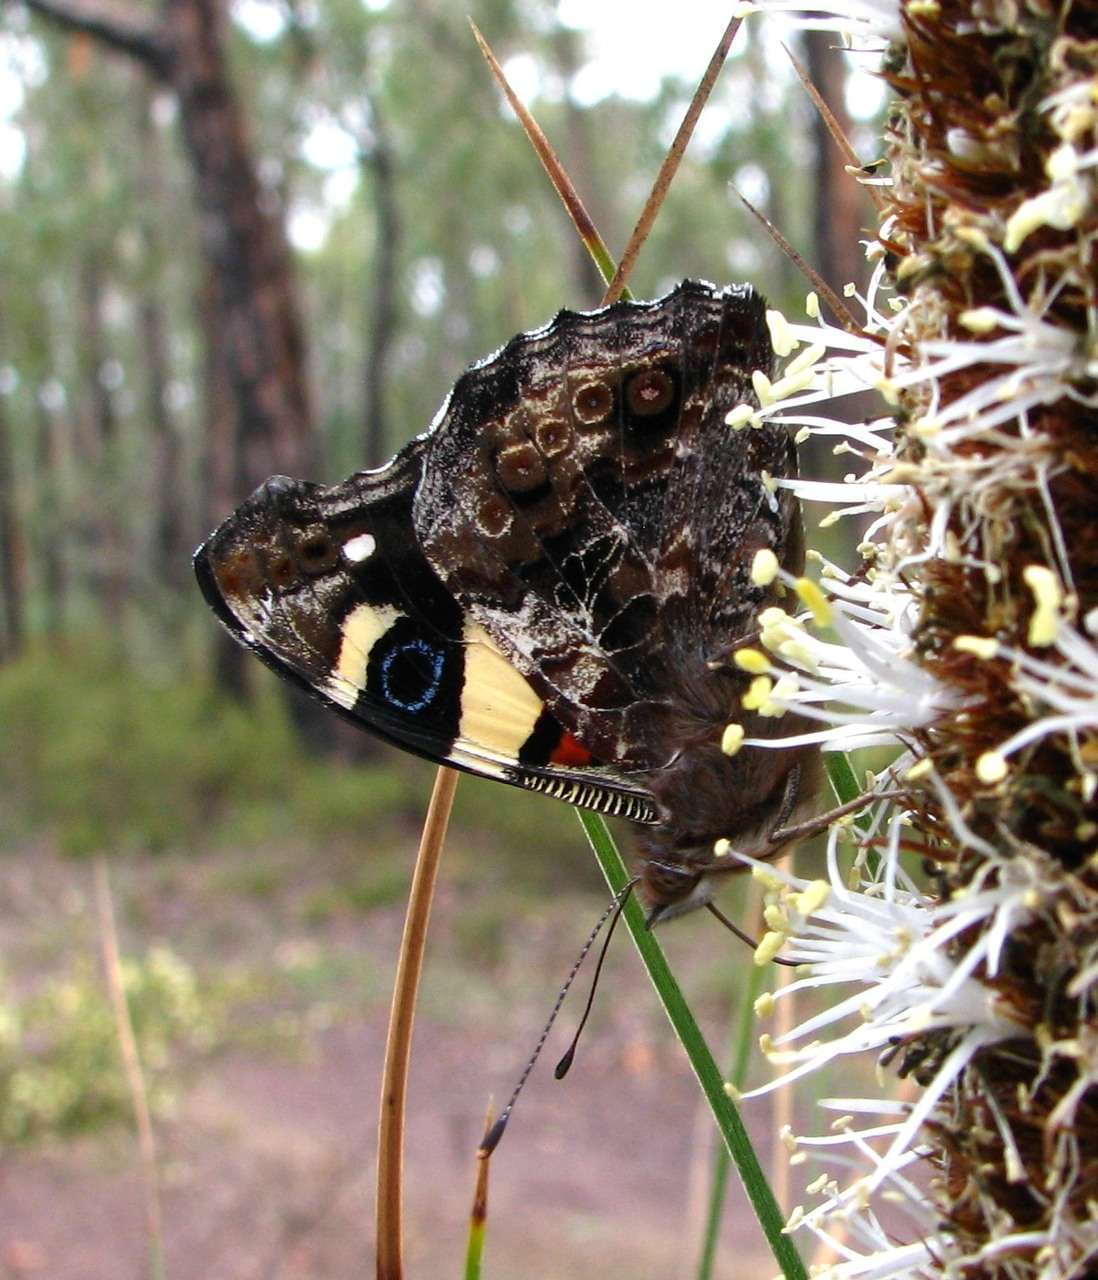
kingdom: Animalia
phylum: Arthropoda
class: Insecta
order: Lepidoptera
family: Nymphalidae
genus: Vanessa
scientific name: Vanessa itea
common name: Yellow admiral
